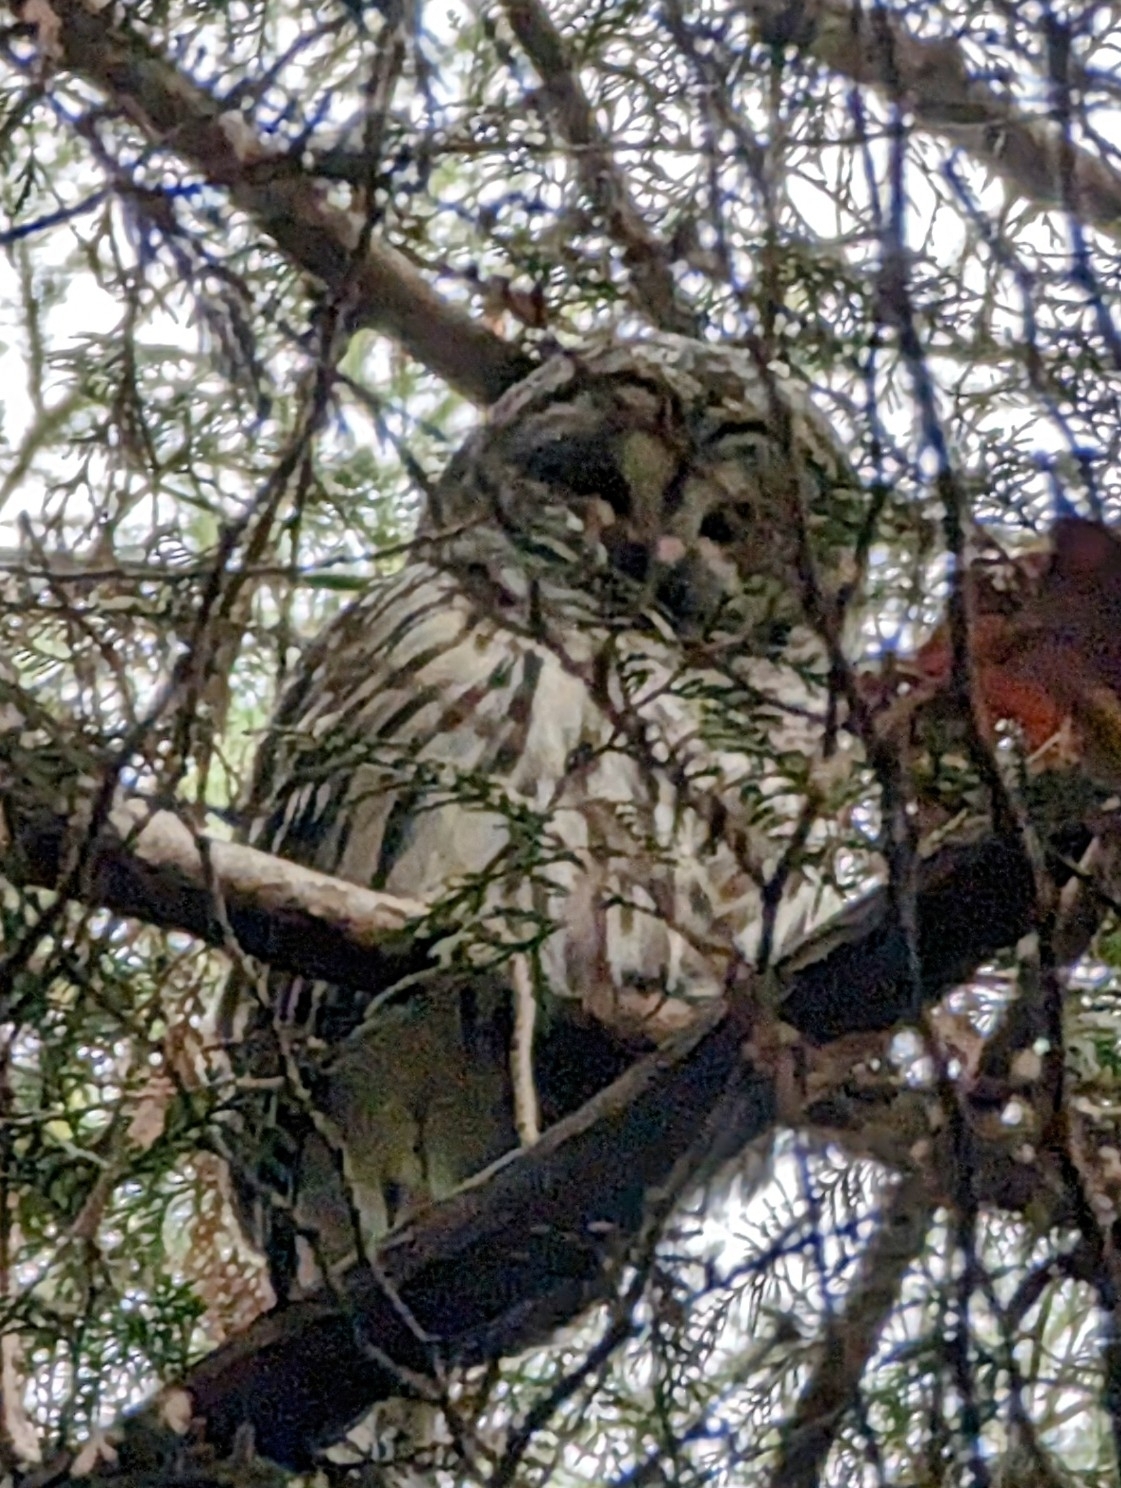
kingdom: Animalia
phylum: Chordata
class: Aves
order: Strigiformes
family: Strigidae
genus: Strix
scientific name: Strix varia
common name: Barred owl
